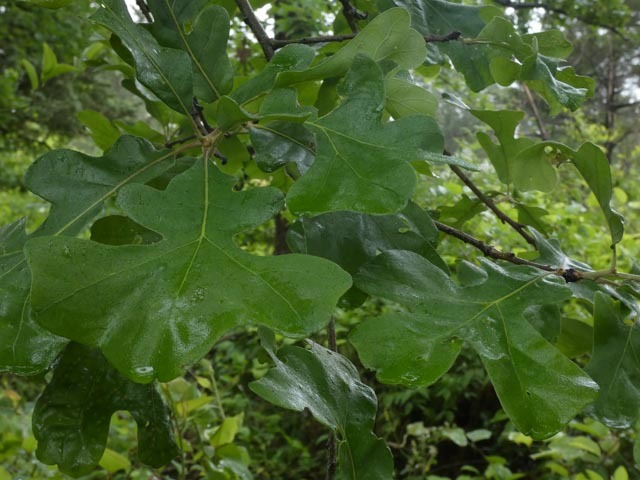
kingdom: Plantae
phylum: Tracheophyta
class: Magnoliopsida
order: Fagales
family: Fagaceae
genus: Quercus
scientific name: Quercus stellata
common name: Post oak
